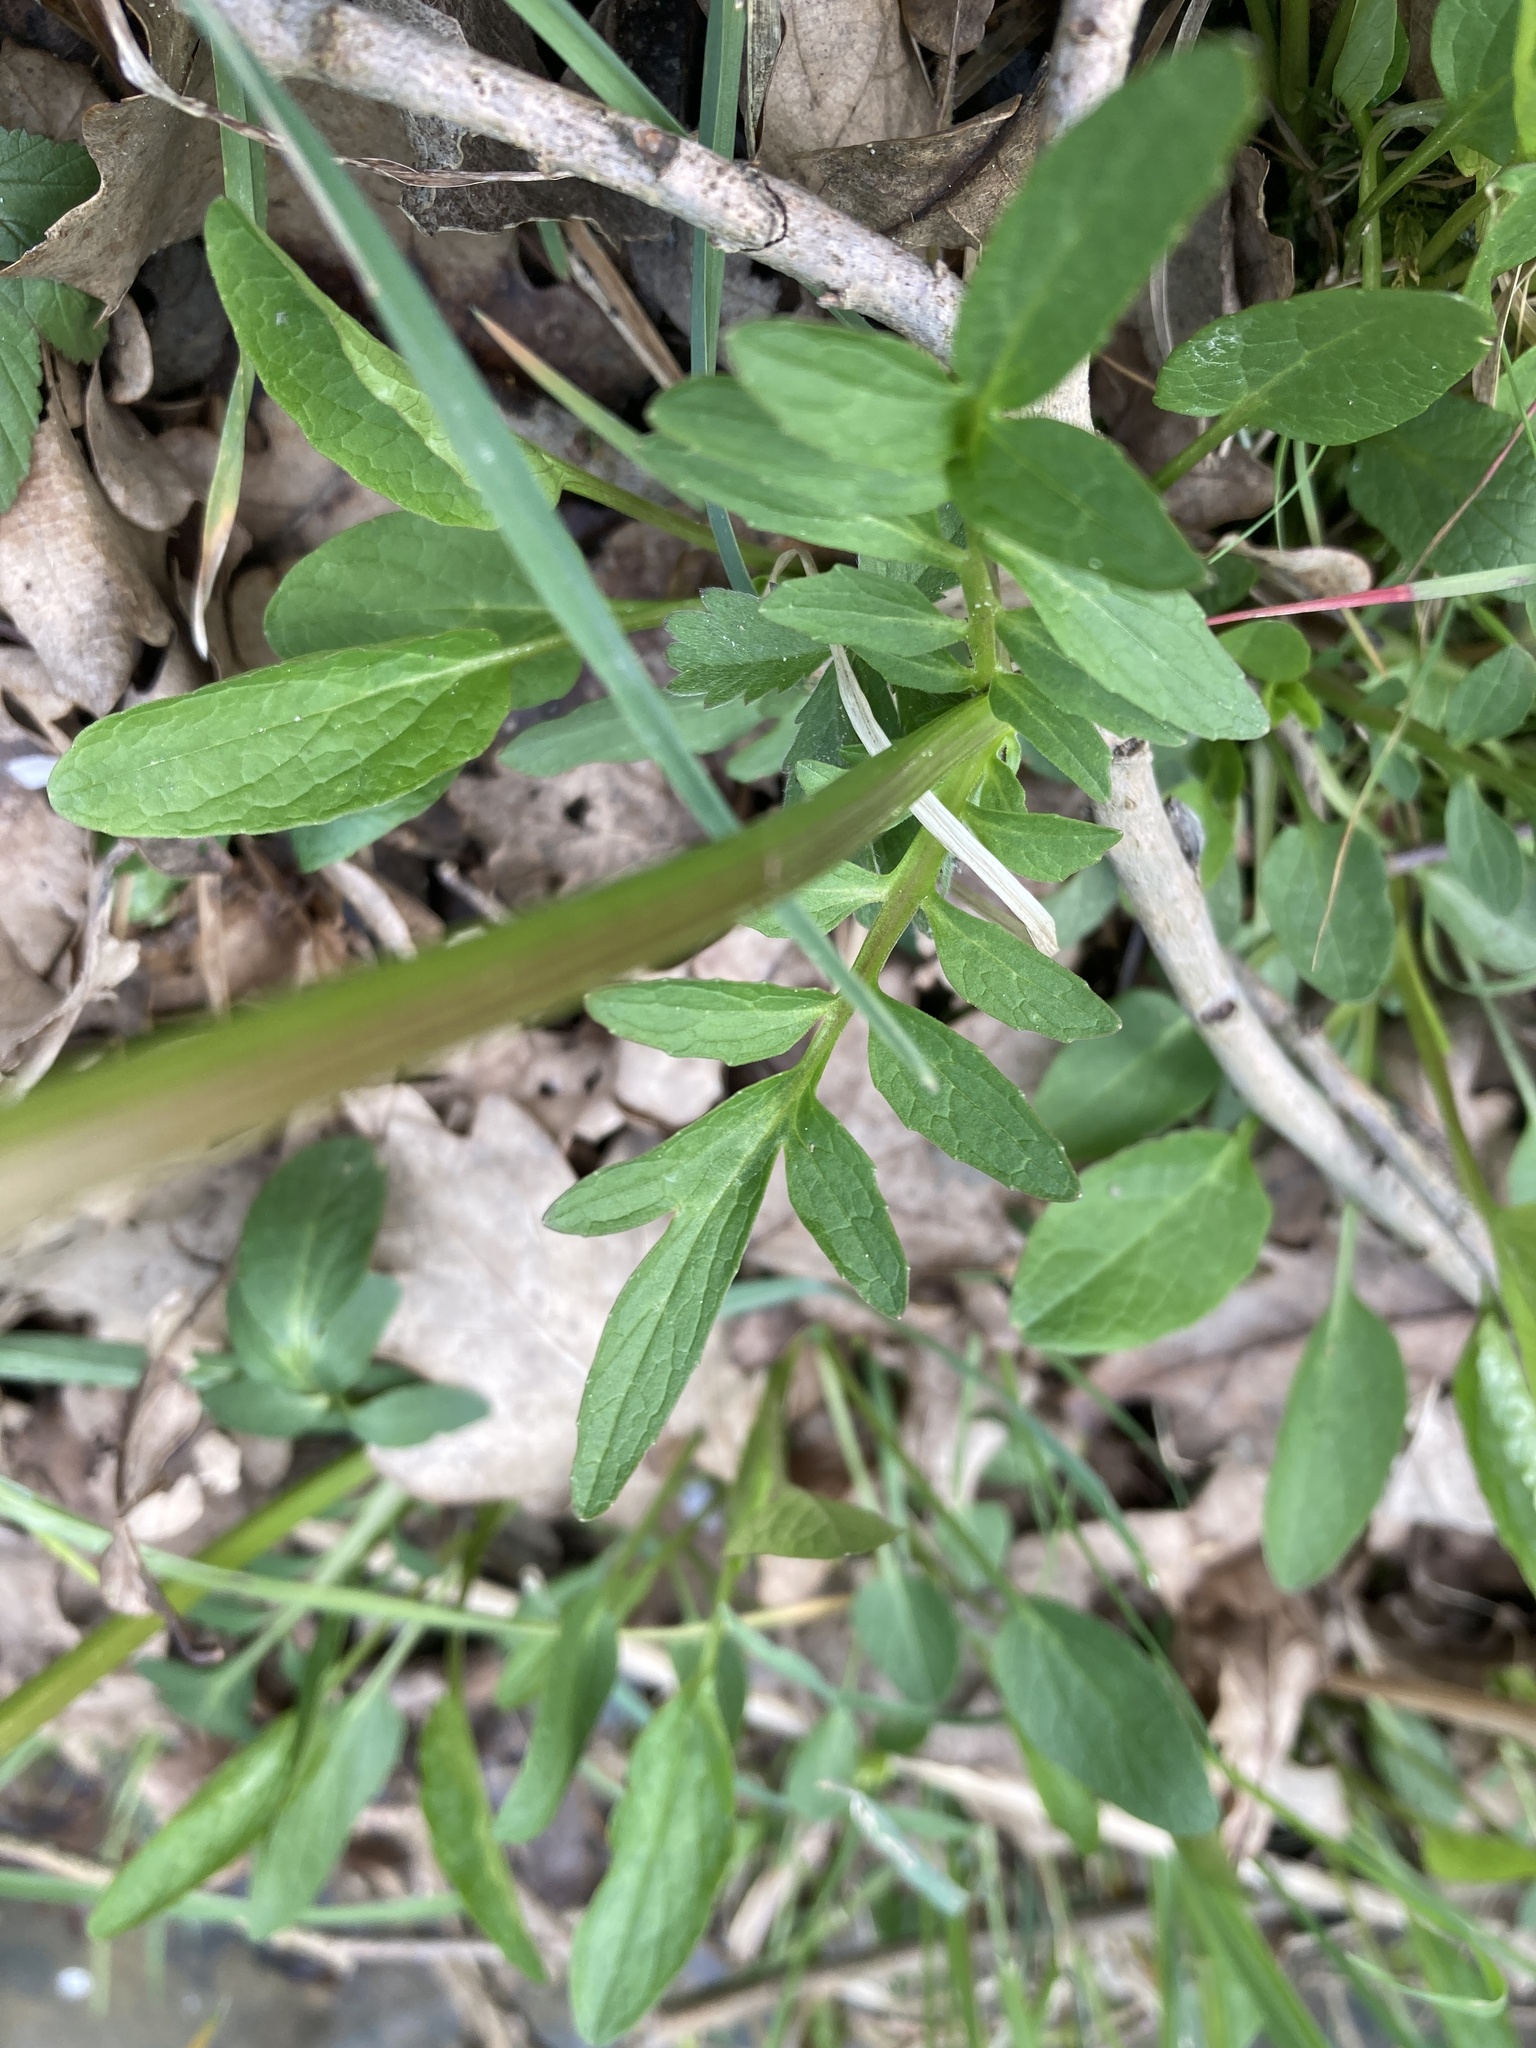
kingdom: Plantae
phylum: Tracheophyta
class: Magnoliopsida
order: Dipsacales
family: Caprifoliaceae
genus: Valeriana
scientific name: Valeriana dioica
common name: Marsh valerian
